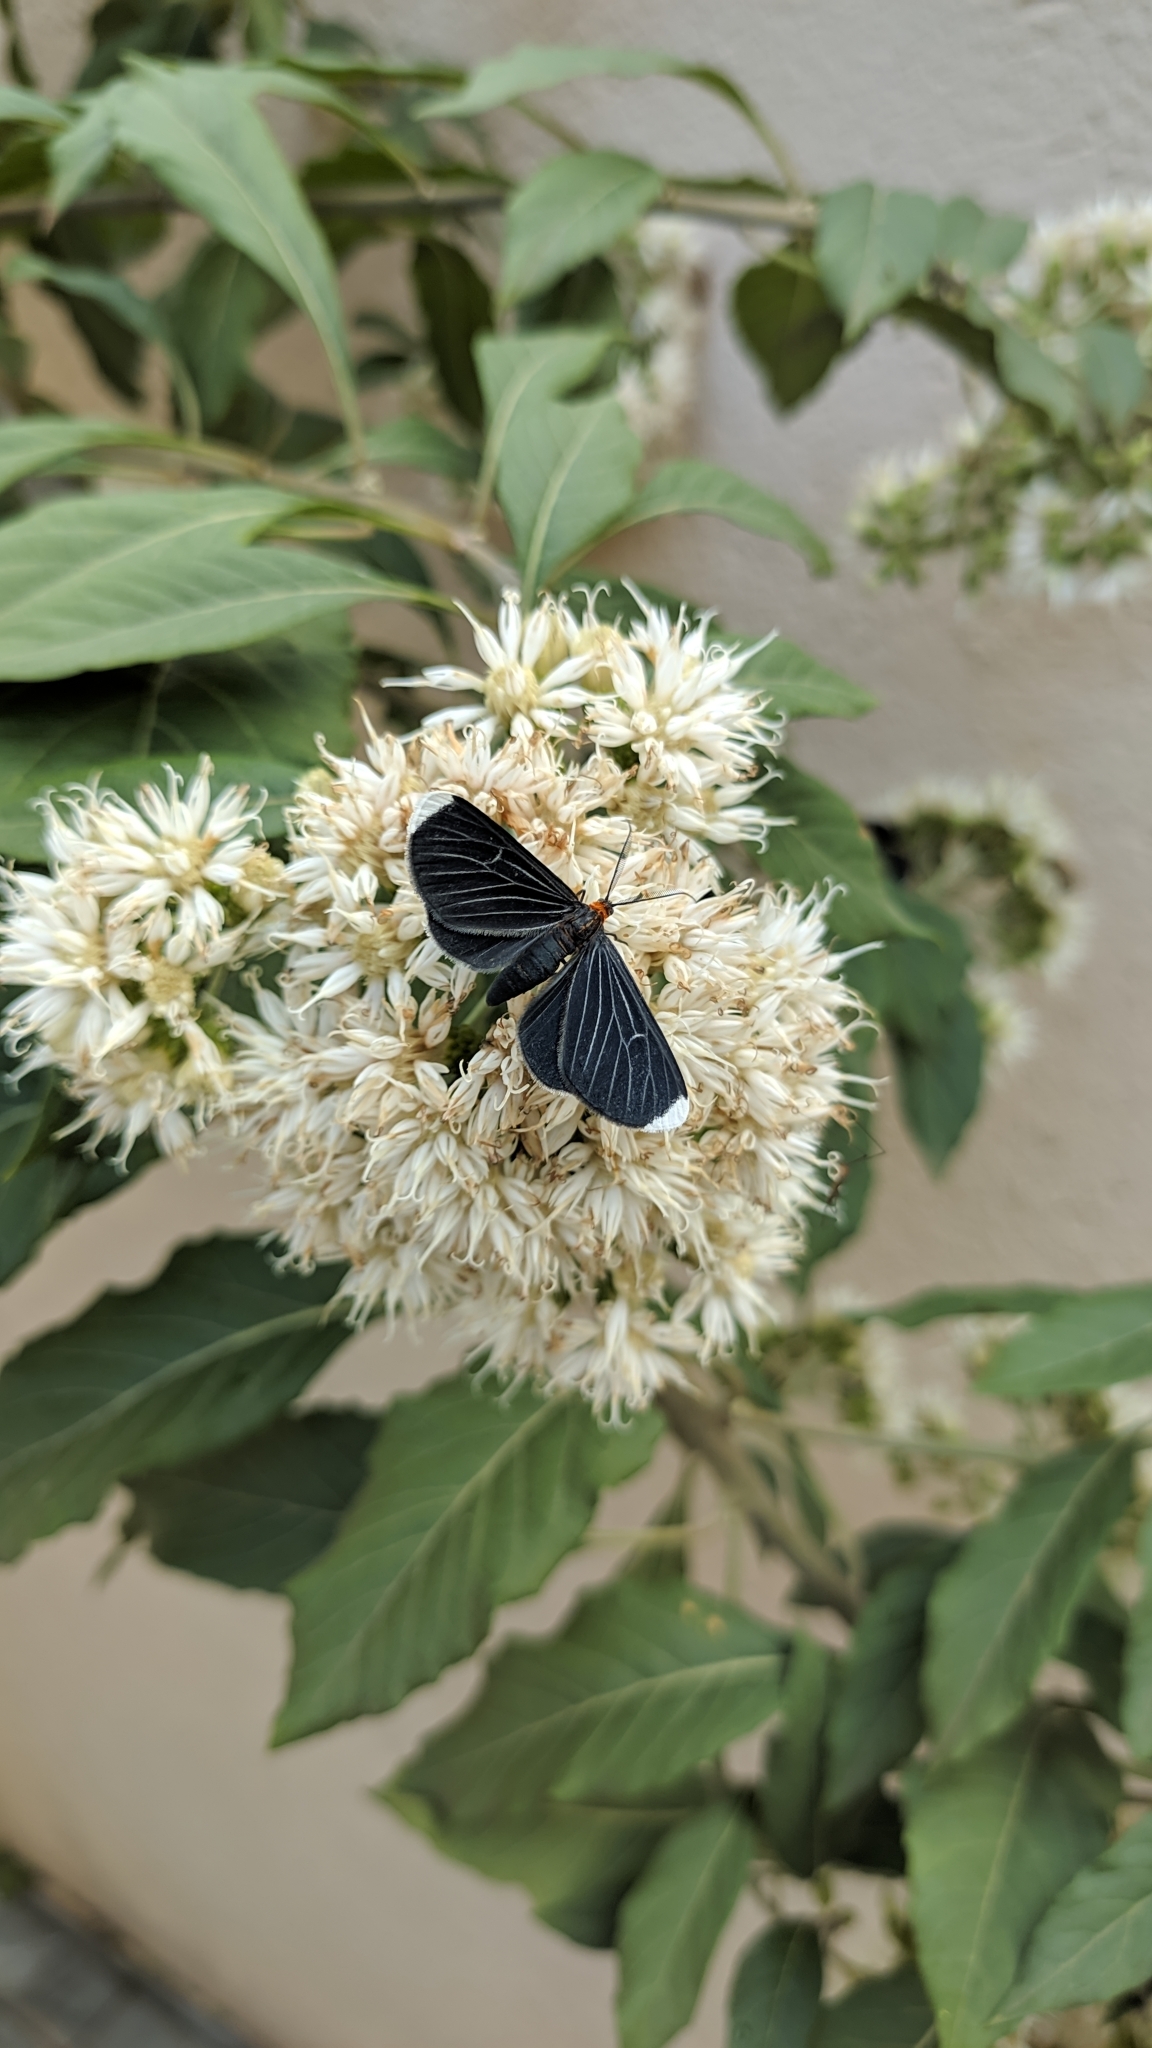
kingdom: Animalia
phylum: Arthropoda
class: Insecta
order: Lepidoptera
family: Geometridae
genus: Melanchroia
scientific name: Melanchroia chephise
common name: White-tipped black
